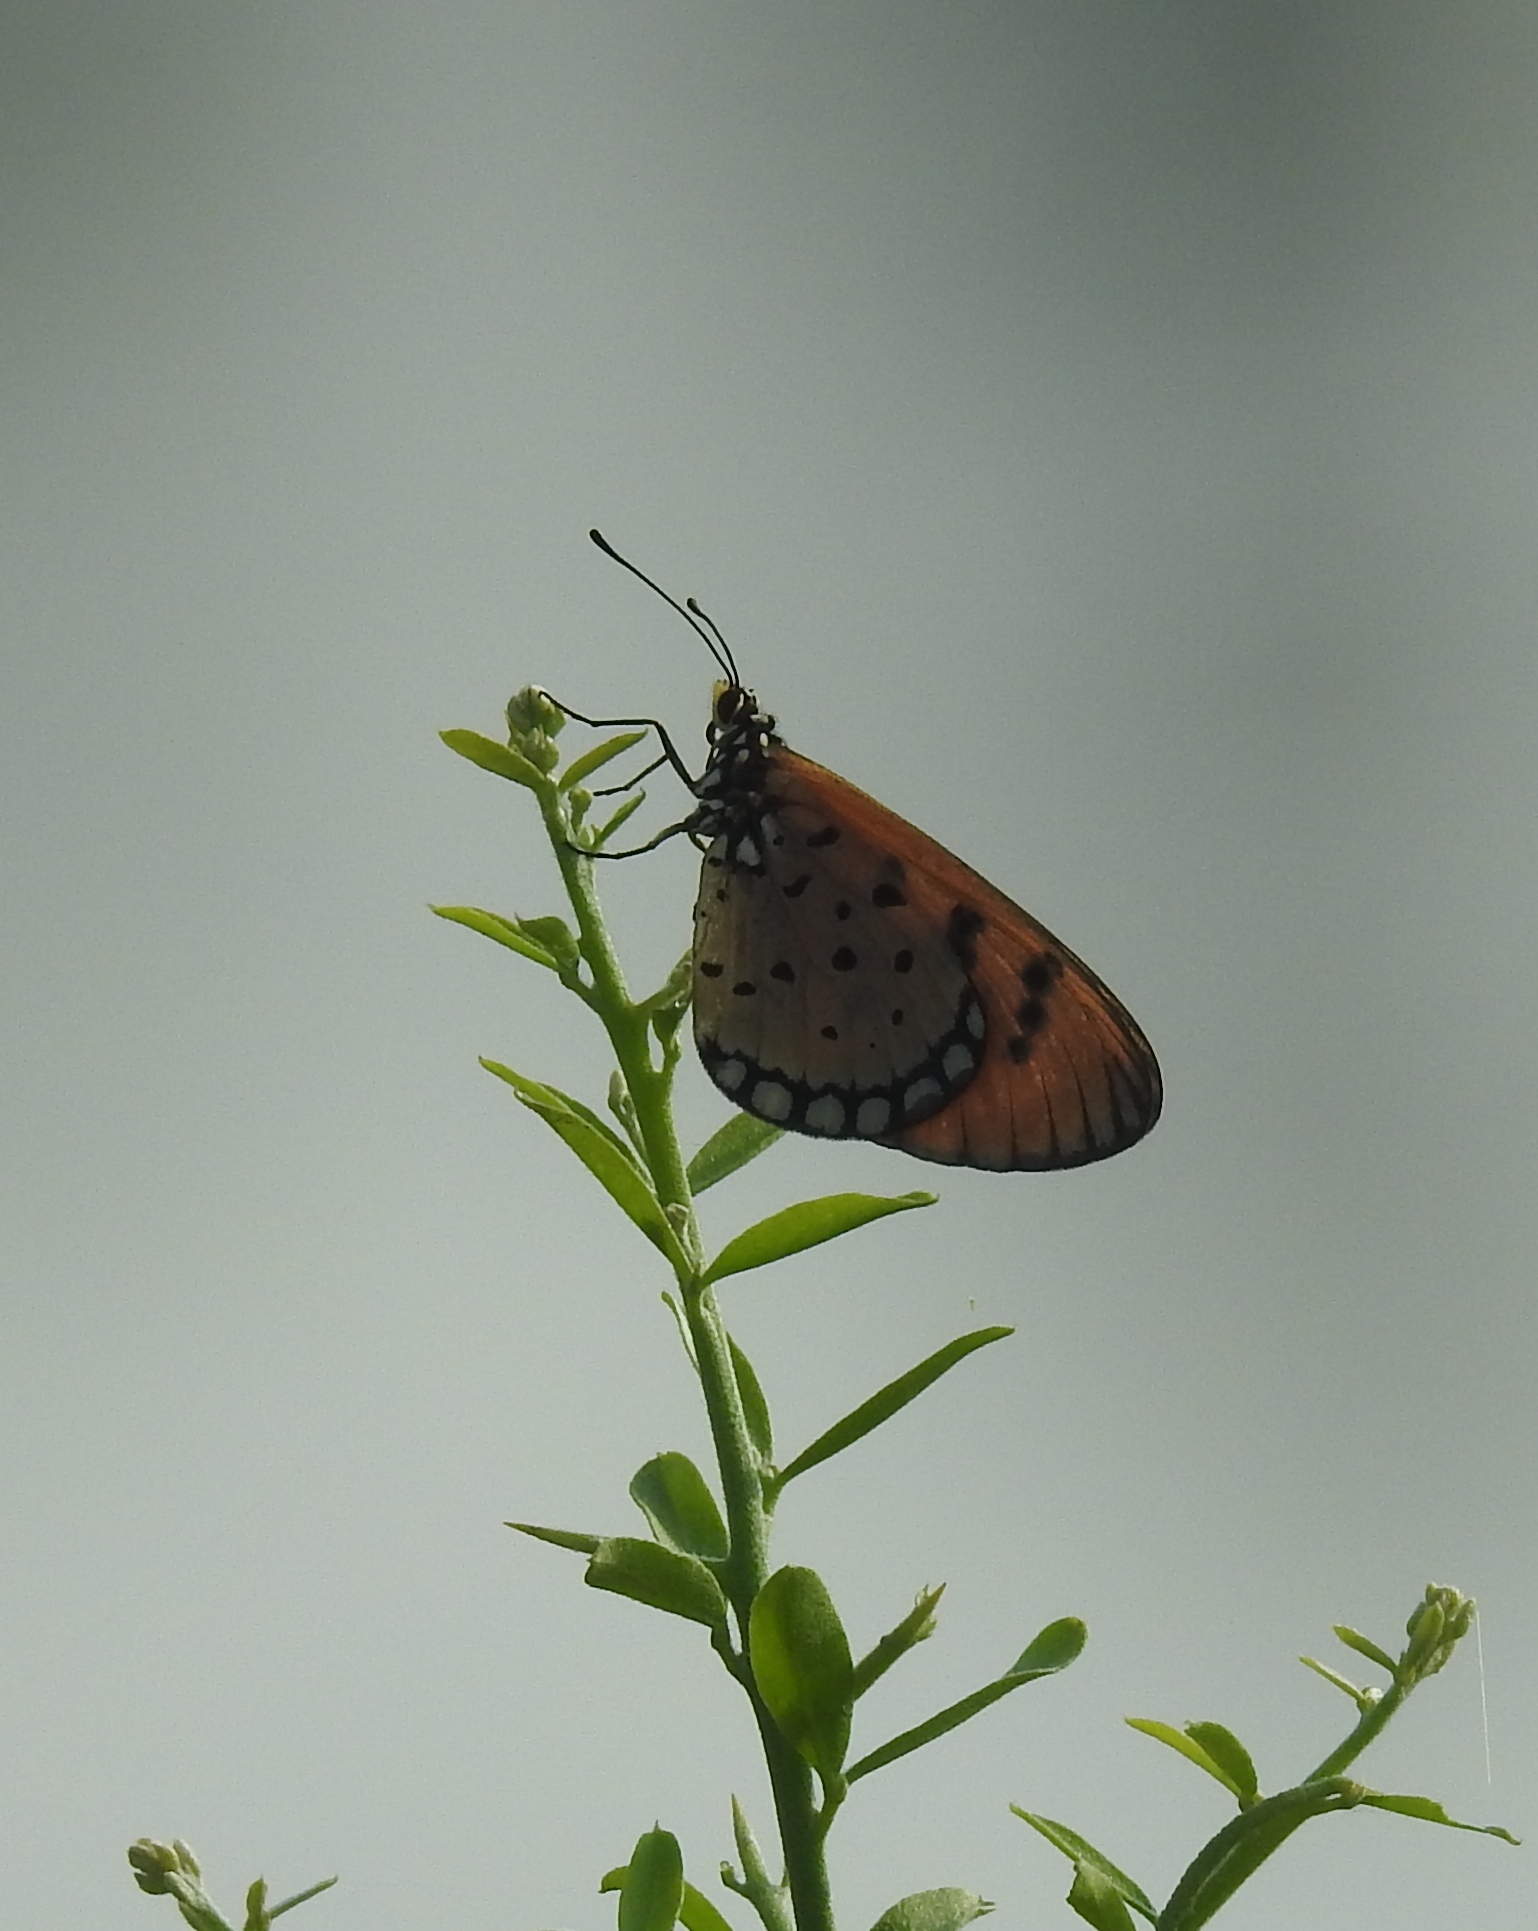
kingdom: Animalia
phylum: Arthropoda
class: Insecta
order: Lepidoptera
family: Nymphalidae
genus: Acraea
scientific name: Acraea terpsicore
